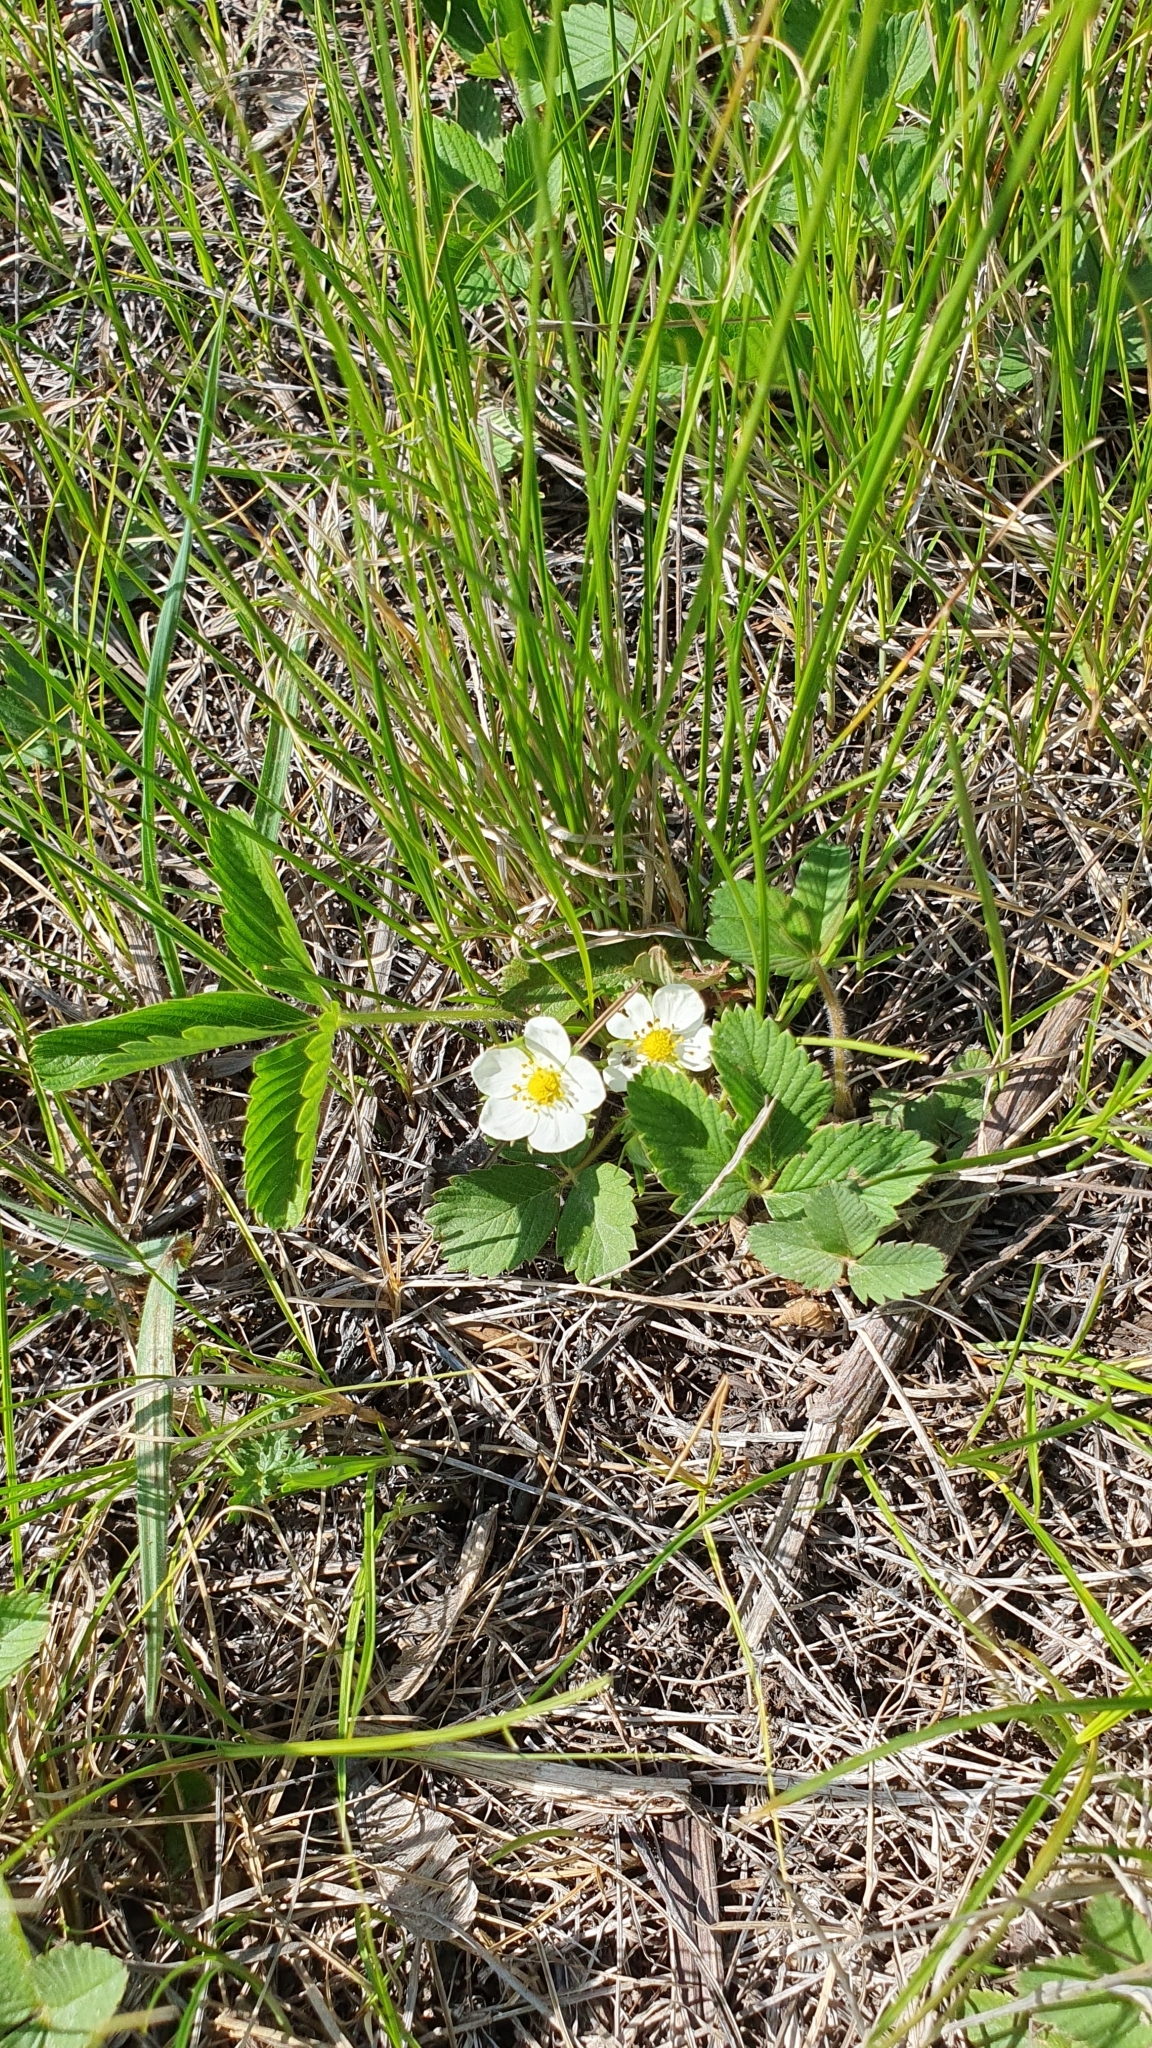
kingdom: Plantae
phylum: Tracheophyta
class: Magnoliopsida
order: Rosales
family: Rosaceae
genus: Fragaria
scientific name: Fragaria viridis
